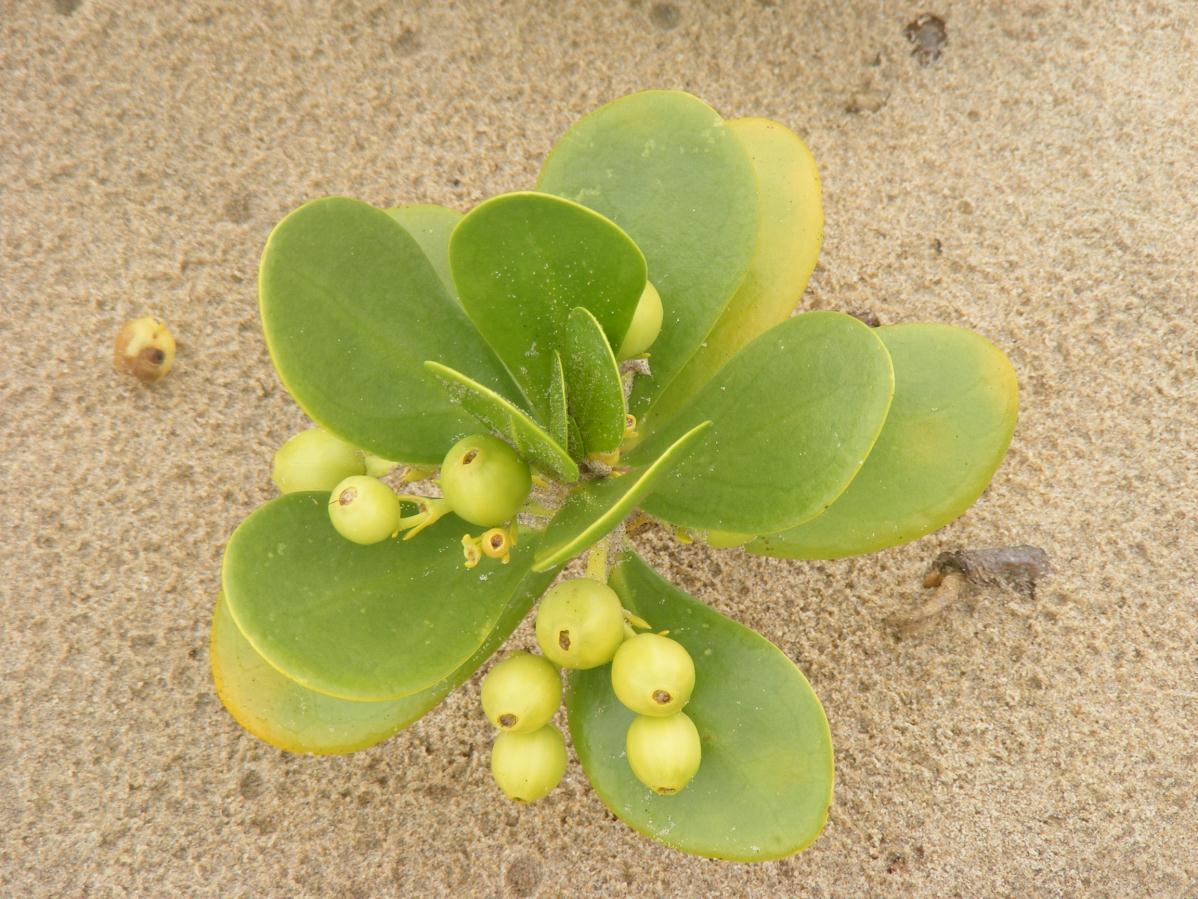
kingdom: Plantae
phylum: Tracheophyta
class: Magnoliopsida
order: Asterales
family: Goodeniaceae
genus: Scaevola
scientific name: Scaevola plumieri
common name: Gull feed
